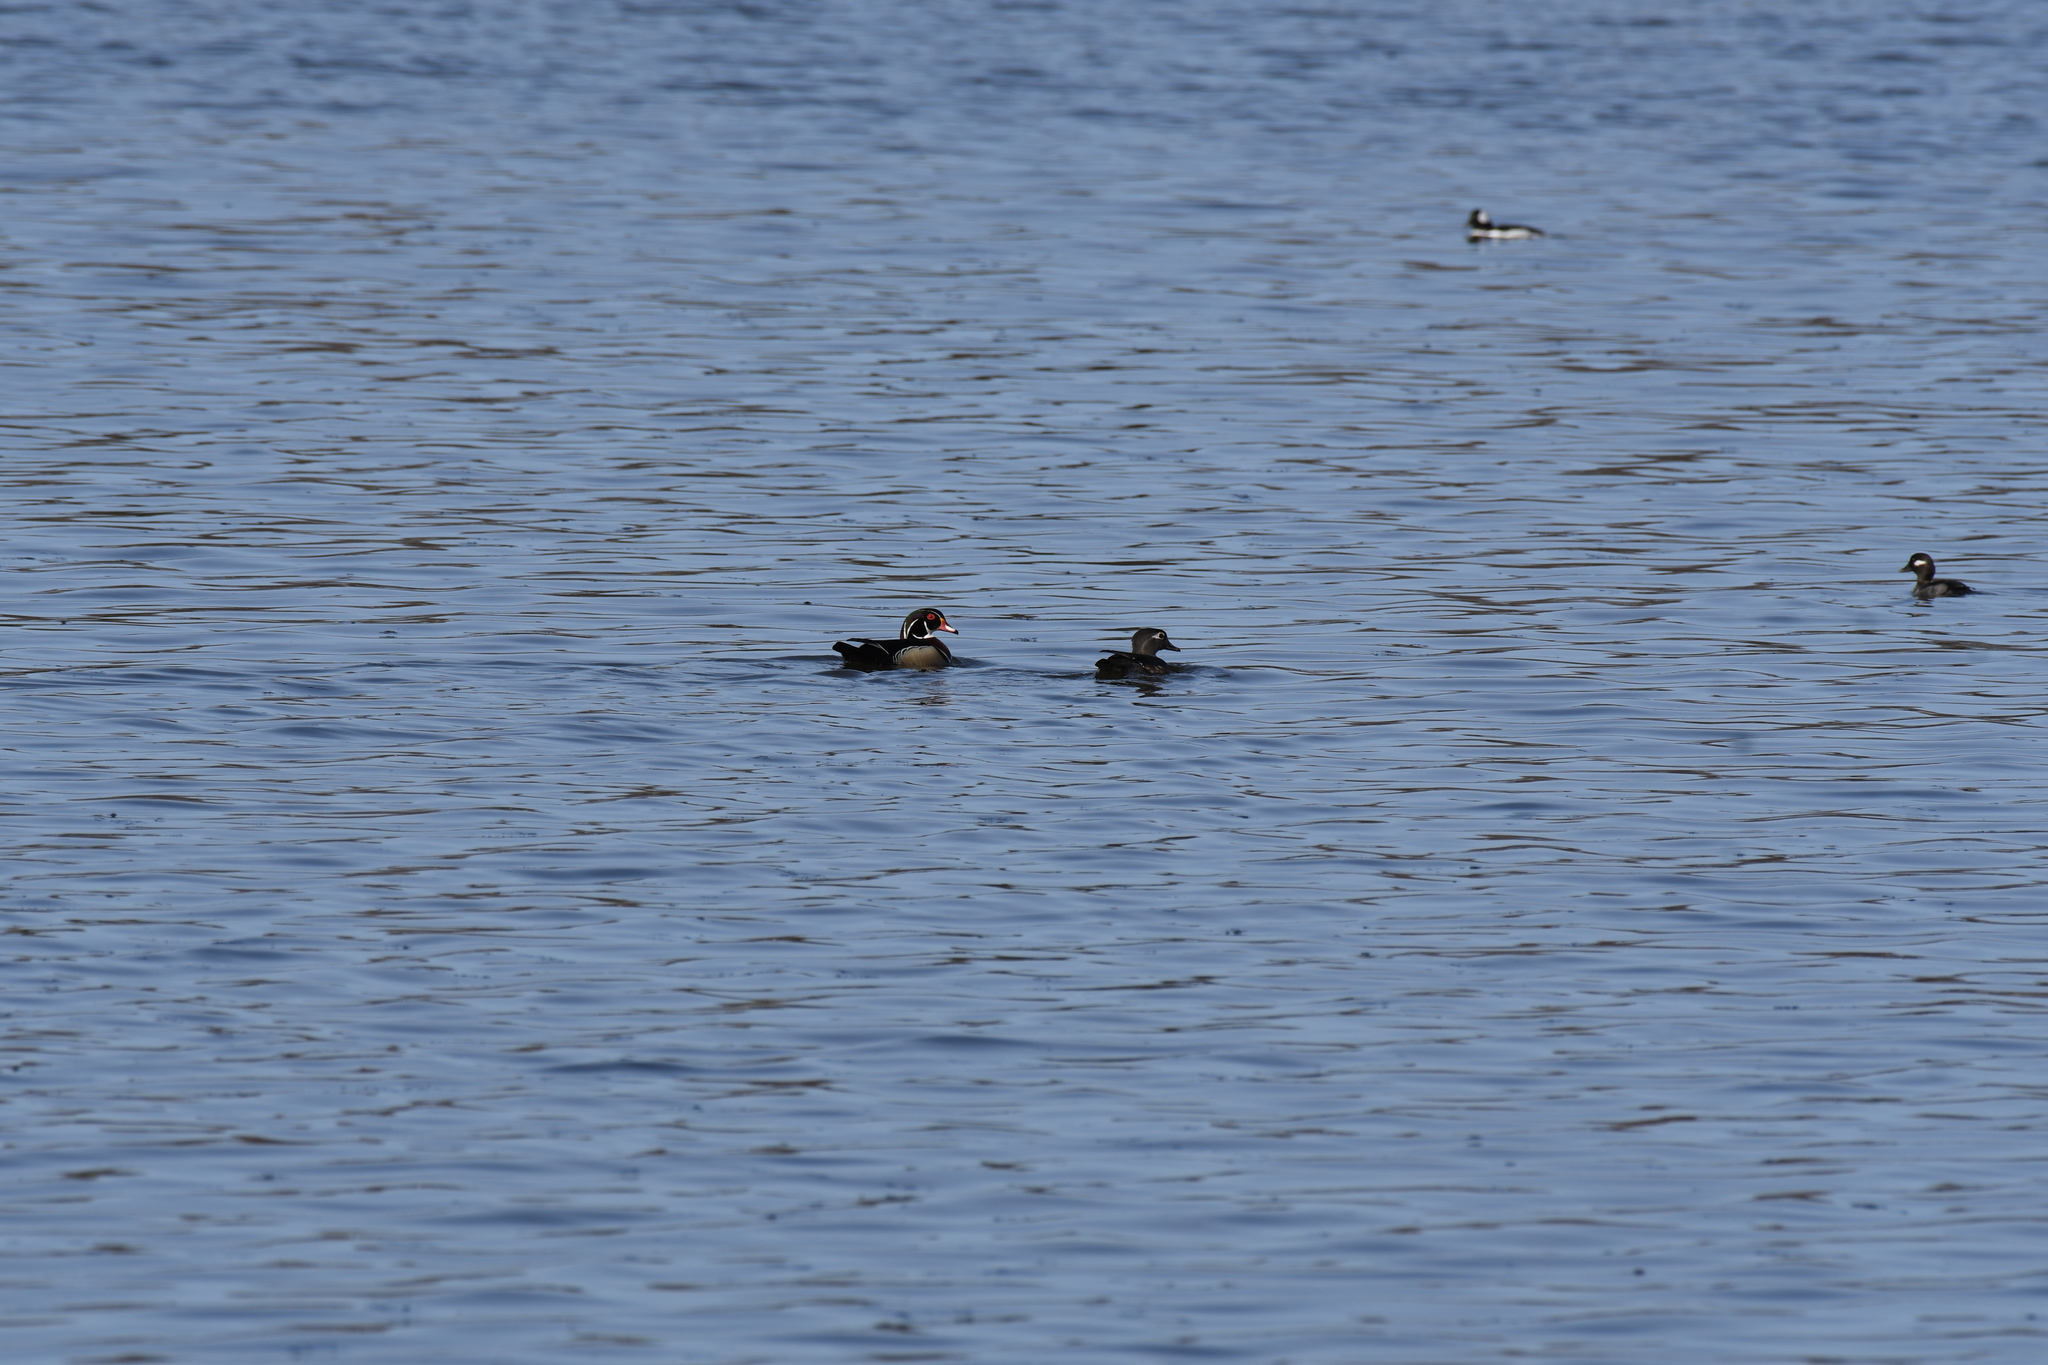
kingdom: Animalia
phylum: Chordata
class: Aves
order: Anseriformes
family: Anatidae
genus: Aix
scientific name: Aix sponsa
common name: Wood duck
